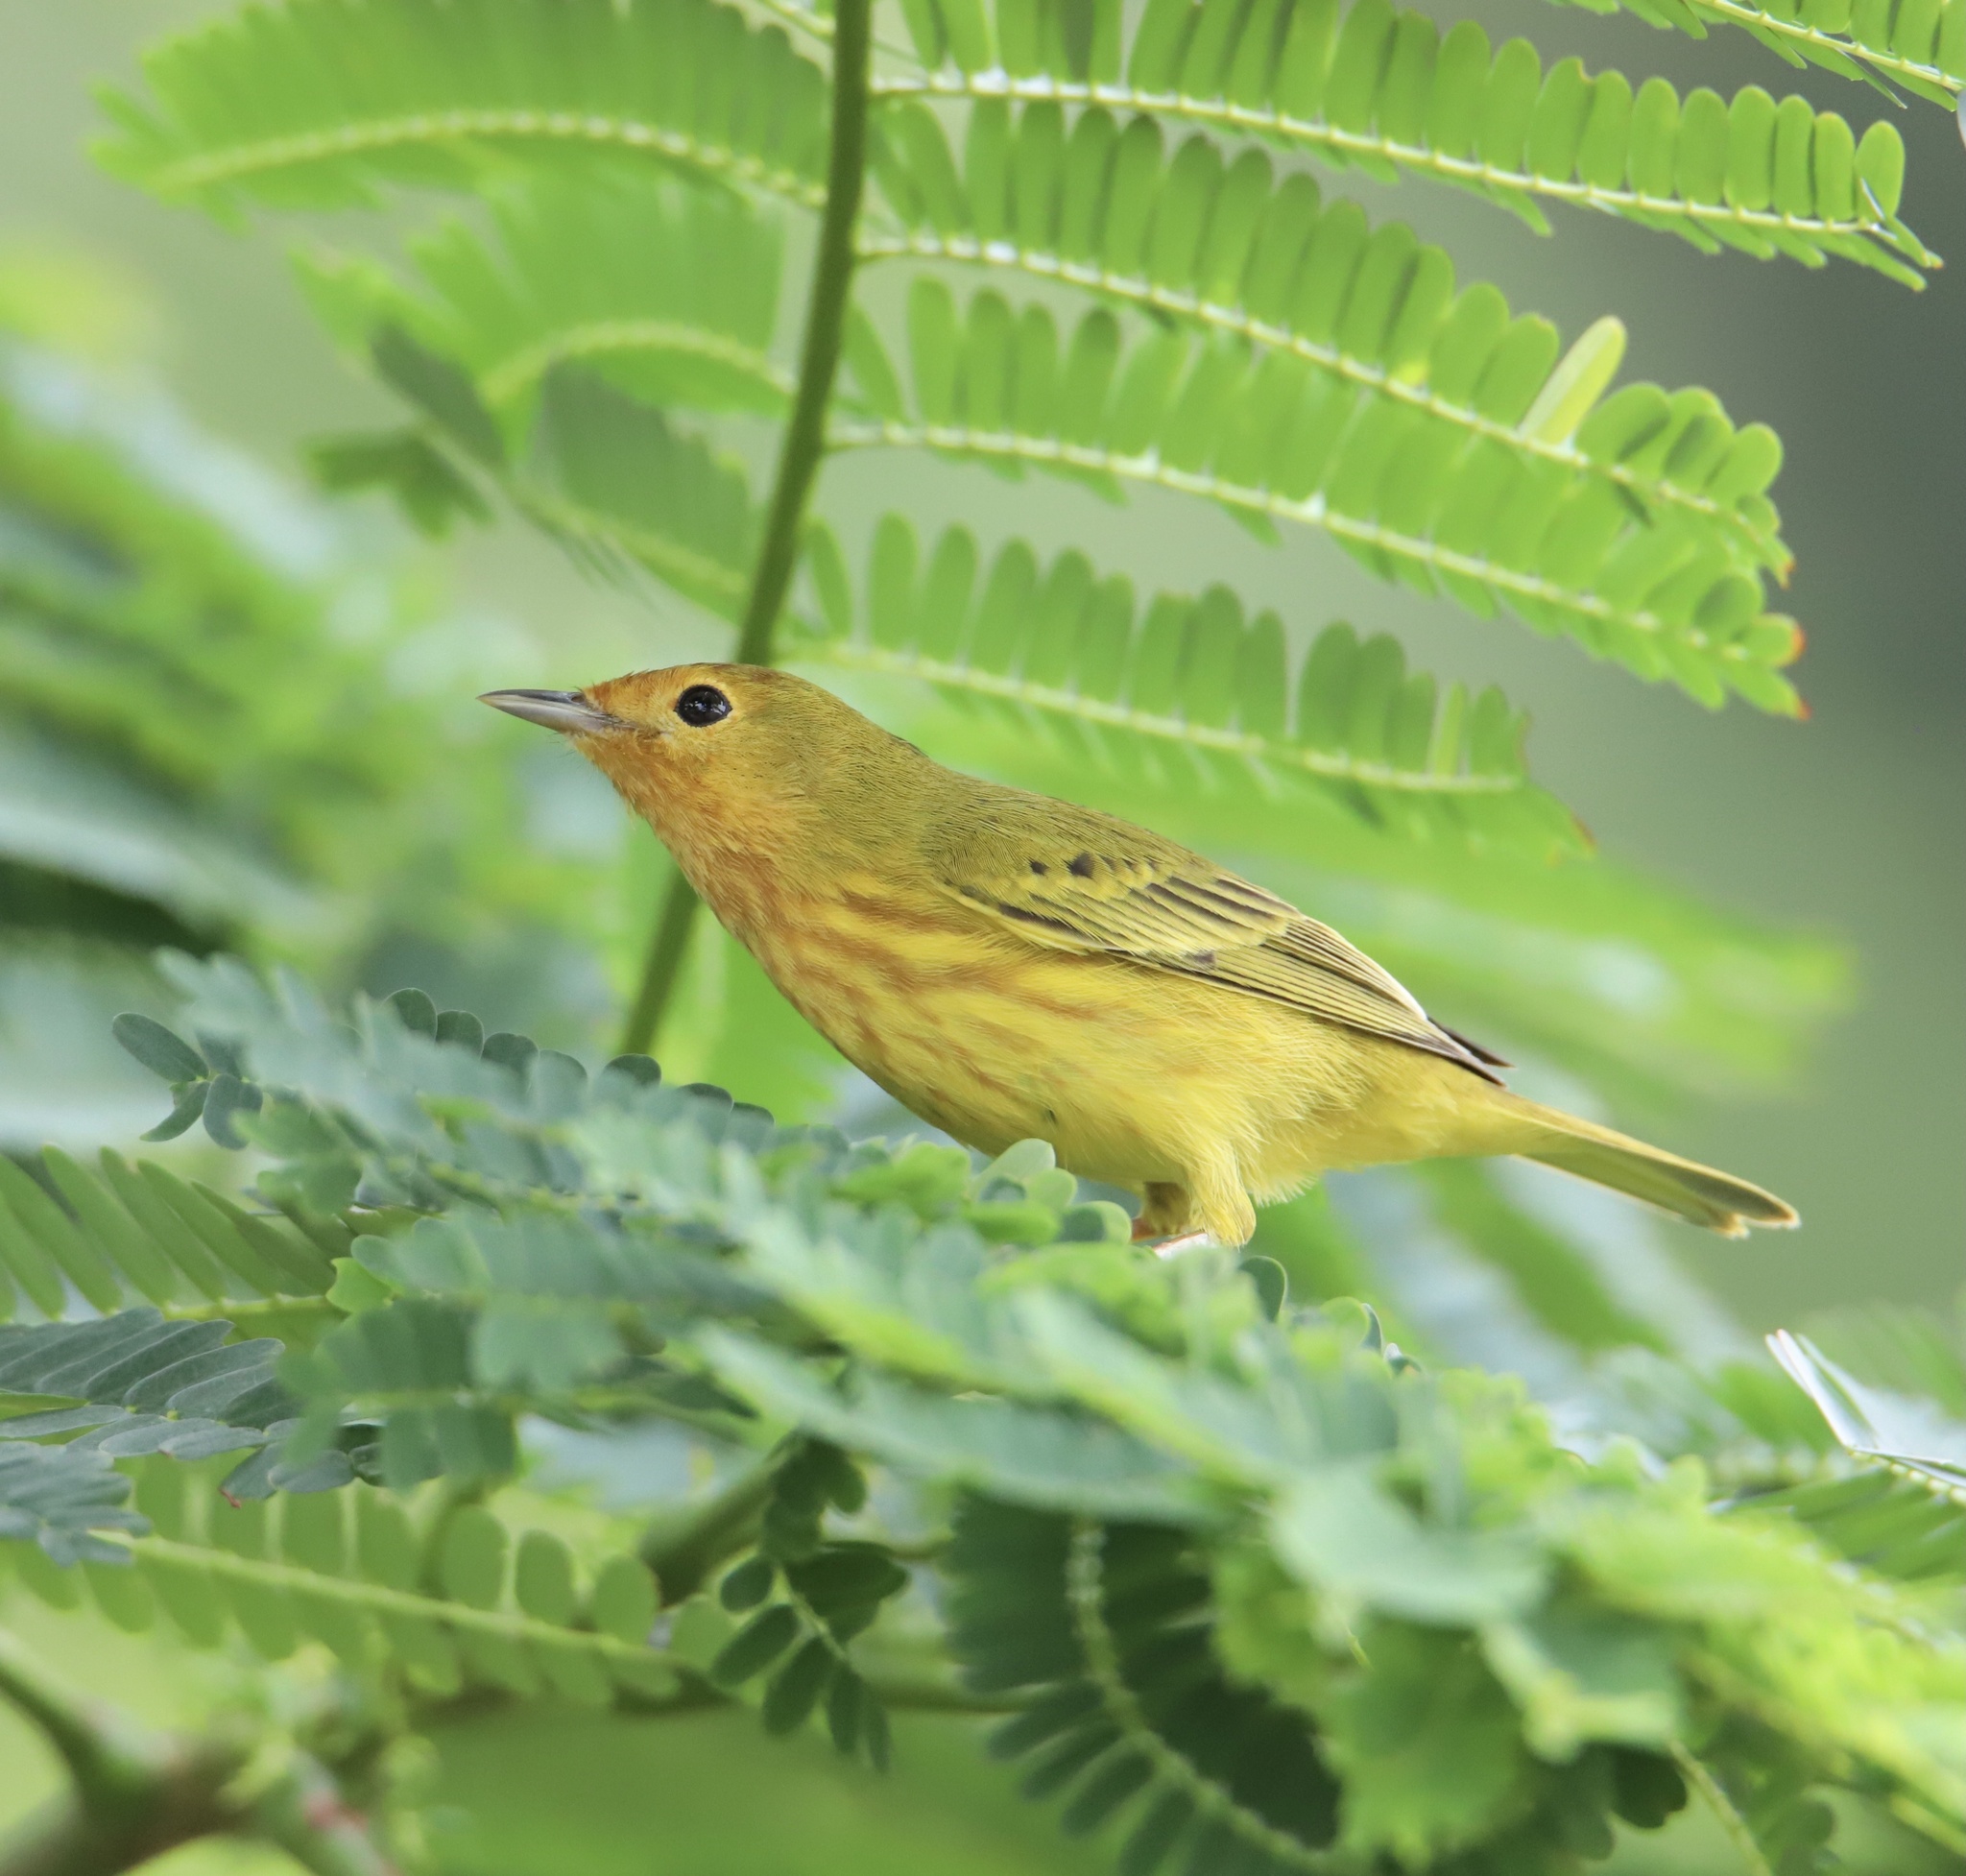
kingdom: Animalia
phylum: Chordata
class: Aves
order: Passeriformes
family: Parulidae
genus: Setophaga
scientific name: Setophaga petechia
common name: Yellow warbler
